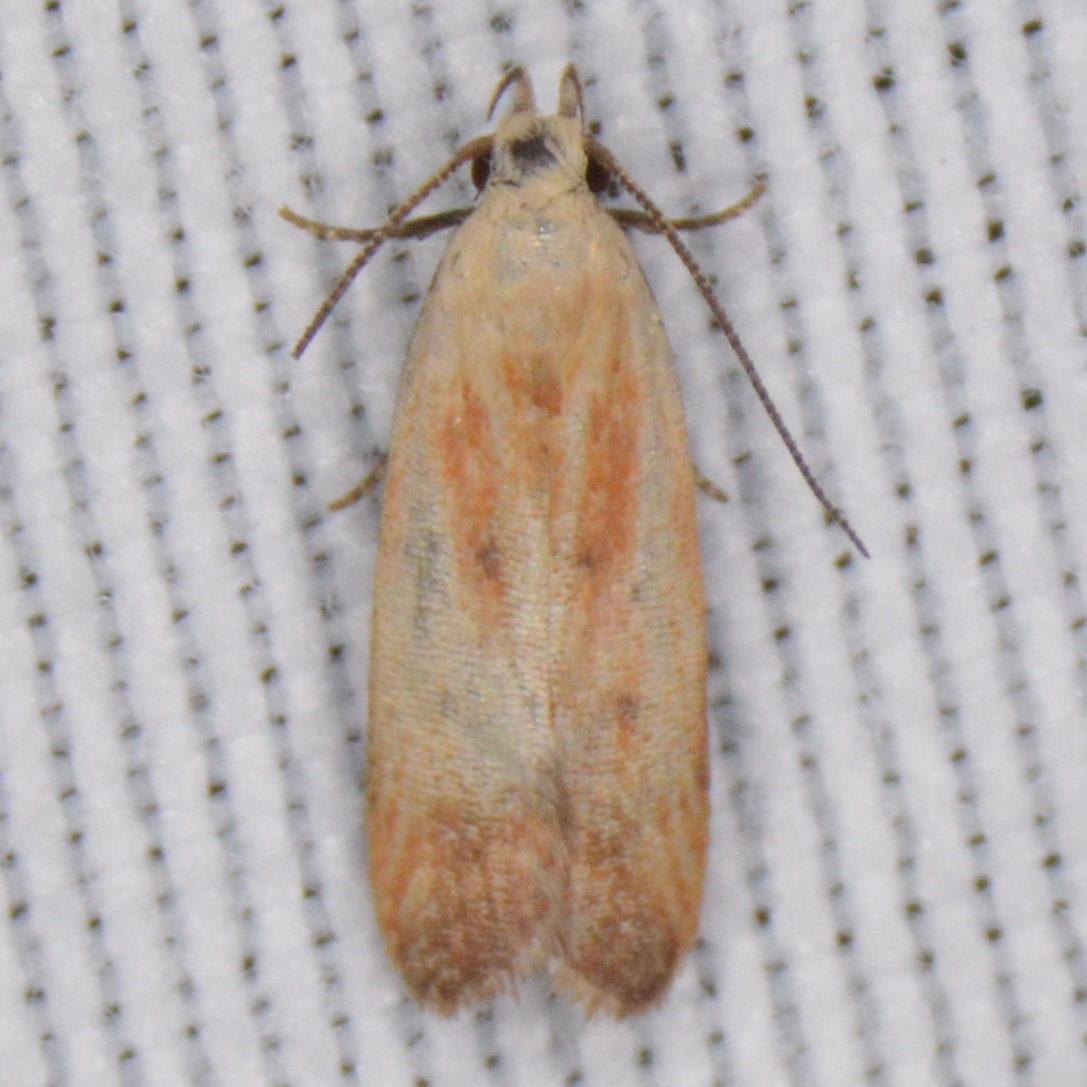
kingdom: Animalia
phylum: Arthropoda
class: Insecta
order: Lepidoptera
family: Gelechiidae
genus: Anacampsis
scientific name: Anacampsis fullonella
